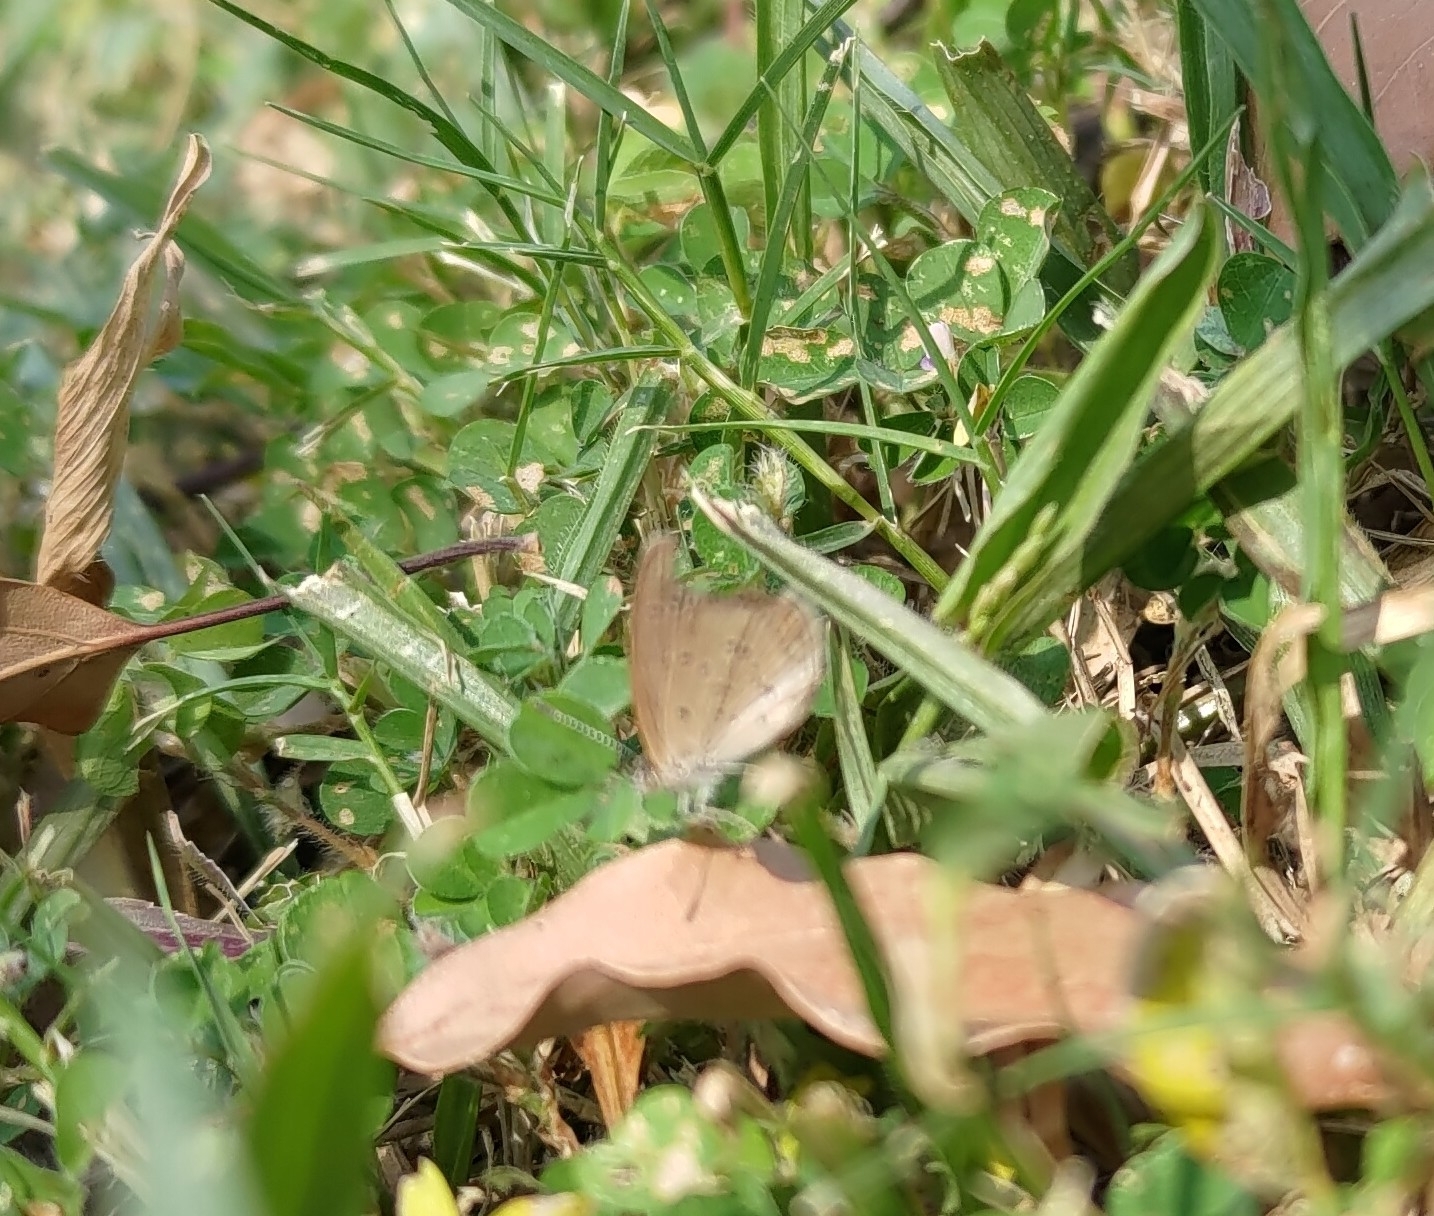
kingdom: Animalia
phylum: Arthropoda
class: Insecta
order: Lepidoptera
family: Lycaenidae
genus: Zizina
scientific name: Zizina otis
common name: Lesser grass blue
